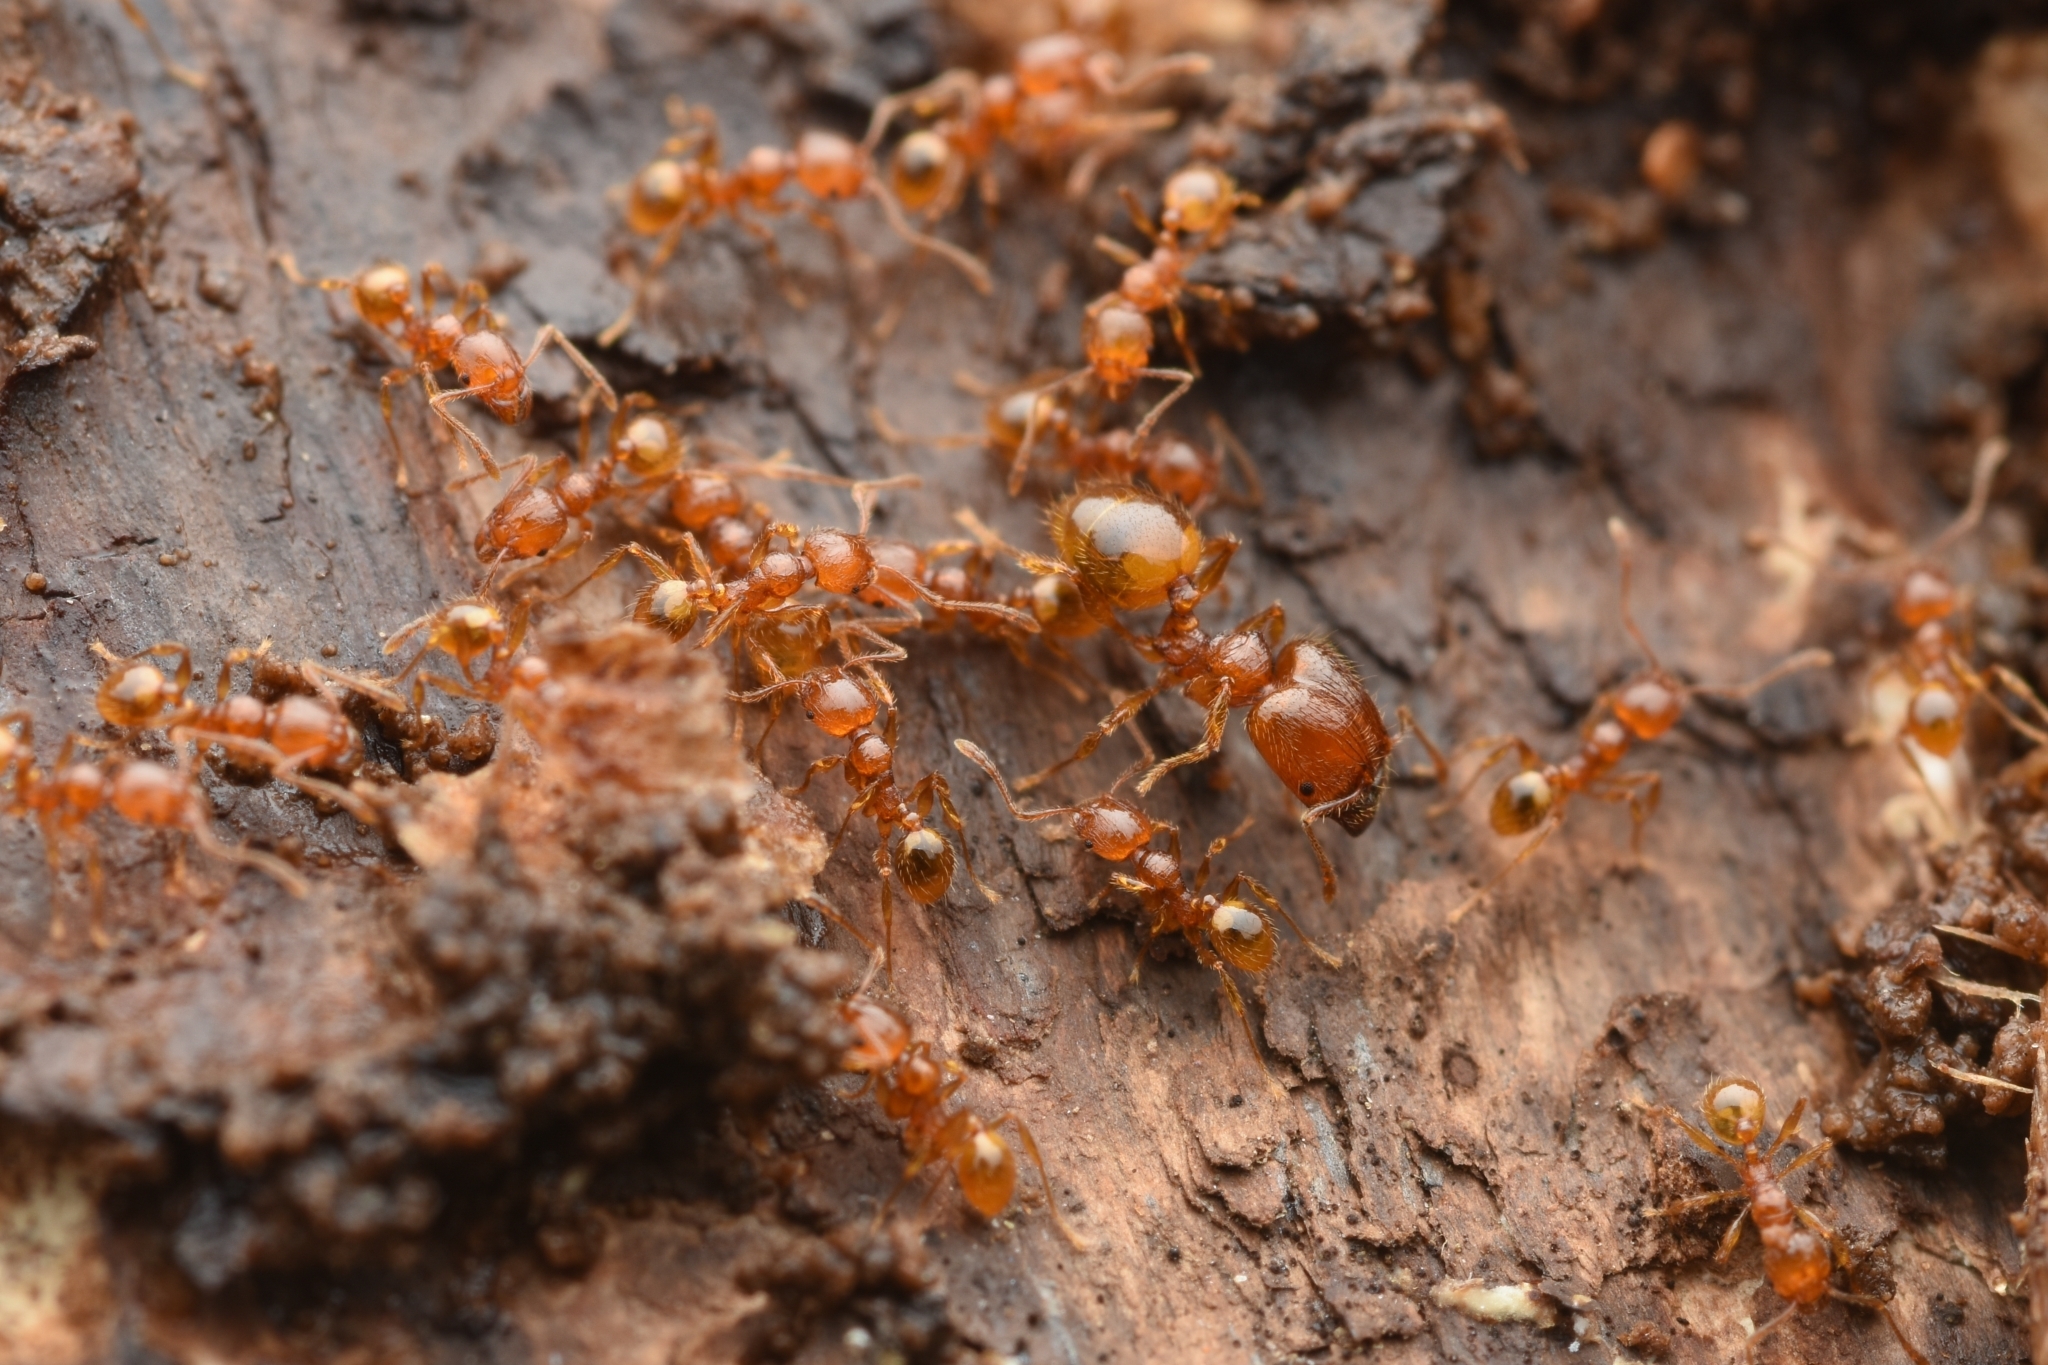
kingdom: Animalia
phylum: Arthropoda
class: Insecta
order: Hymenoptera
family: Formicidae
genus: Pheidole
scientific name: Pheidole fervida
